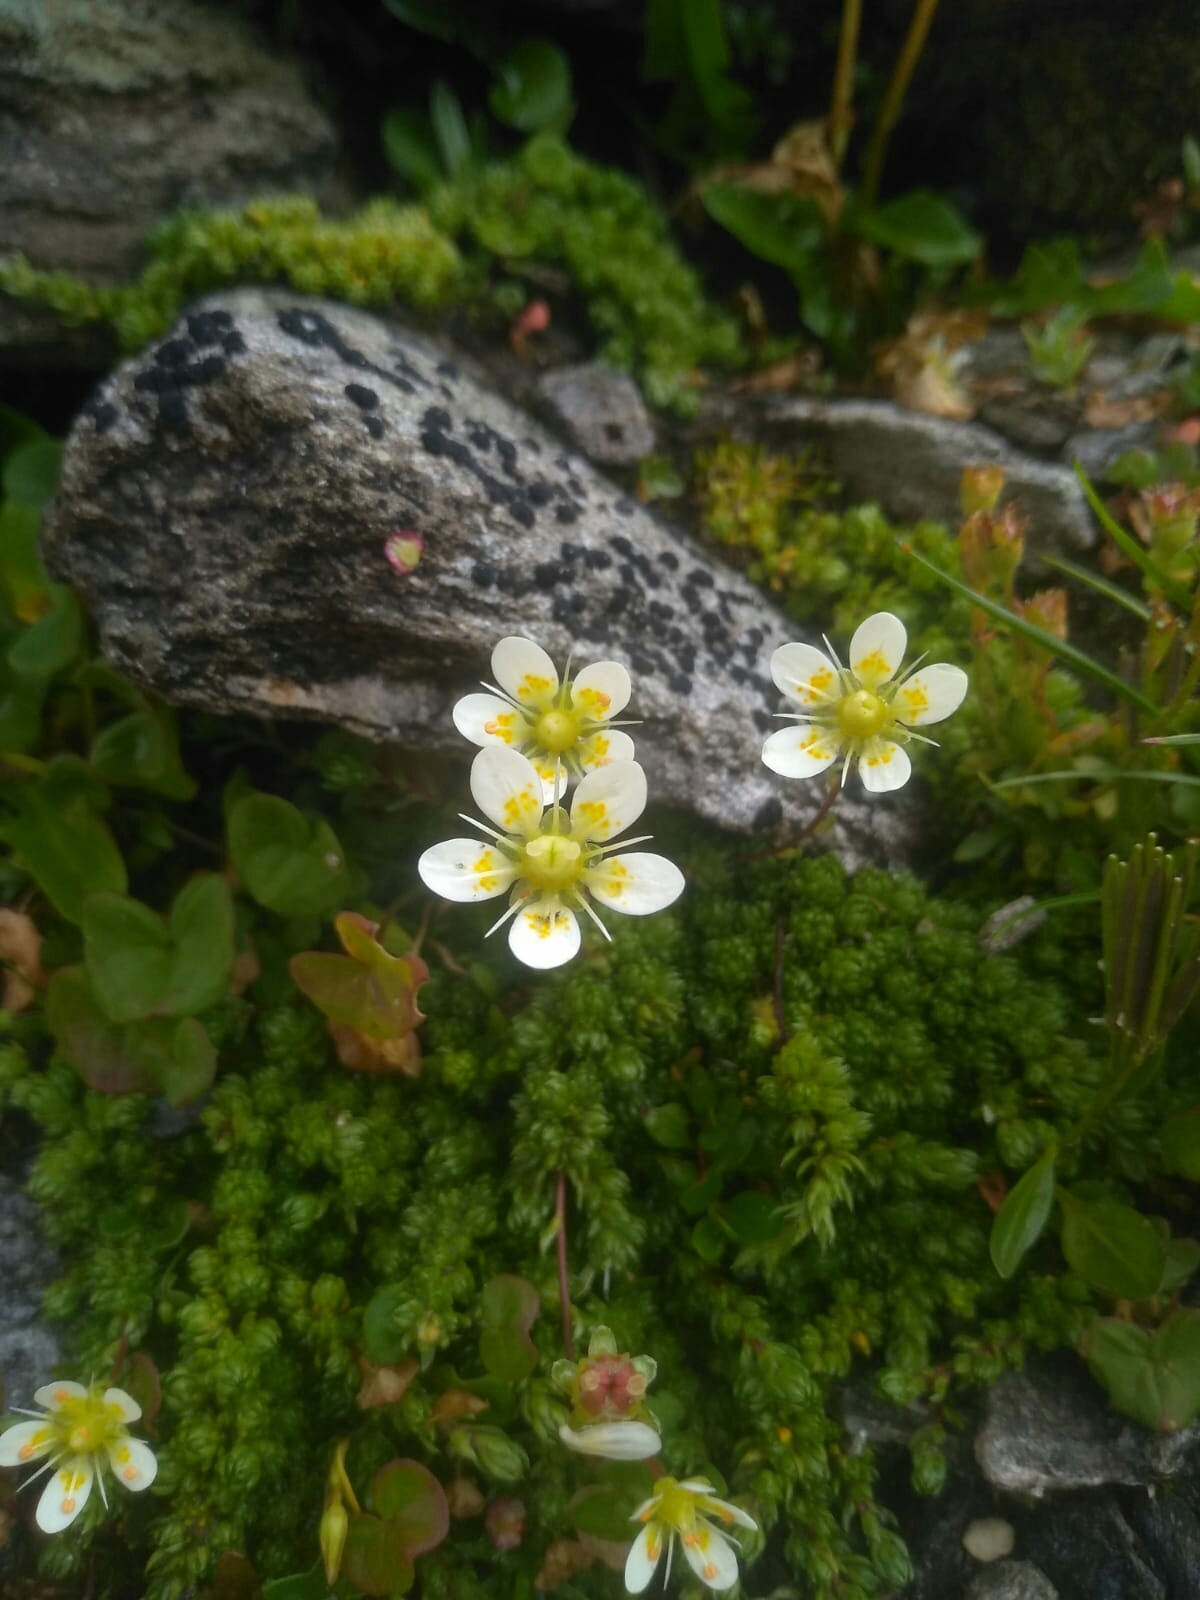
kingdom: Plantae
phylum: Tracheophyta
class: Magnoliopsida
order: Saxifragales
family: Saxifragaceae
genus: Saxifraga
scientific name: Saxifraga bryoides
